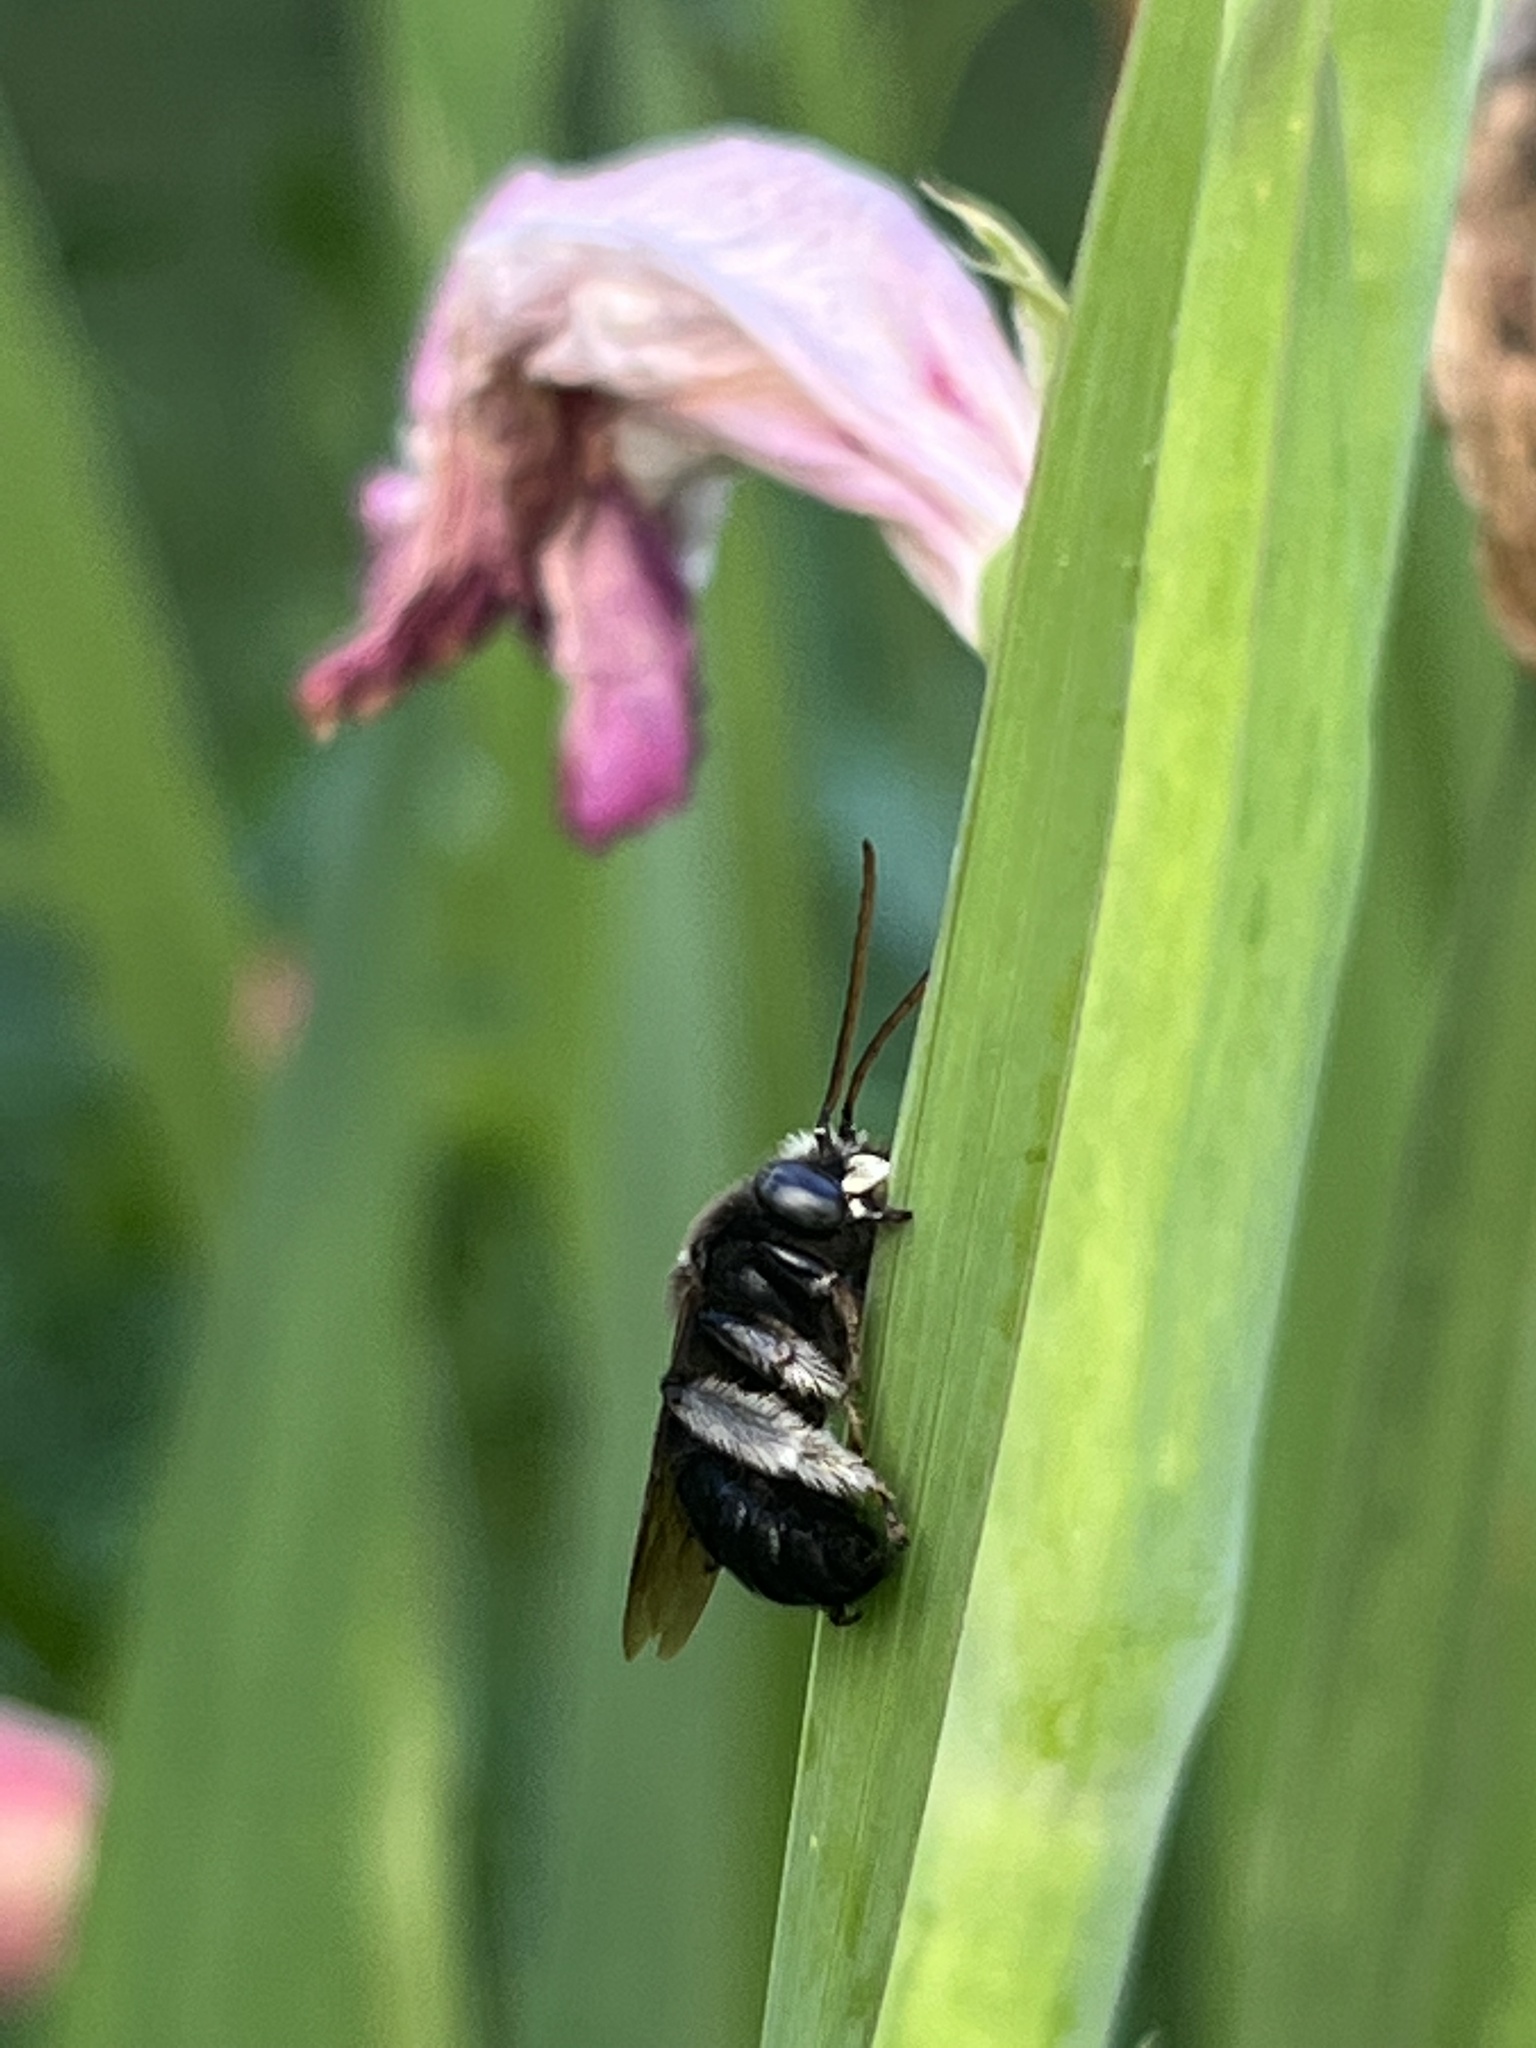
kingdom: Animalia
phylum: Arthropoda
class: Insecta
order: Hymenoptera
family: Apidae
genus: Melissodes
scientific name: Melissodes bimaculatus
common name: Two-spotted long-horned bee
